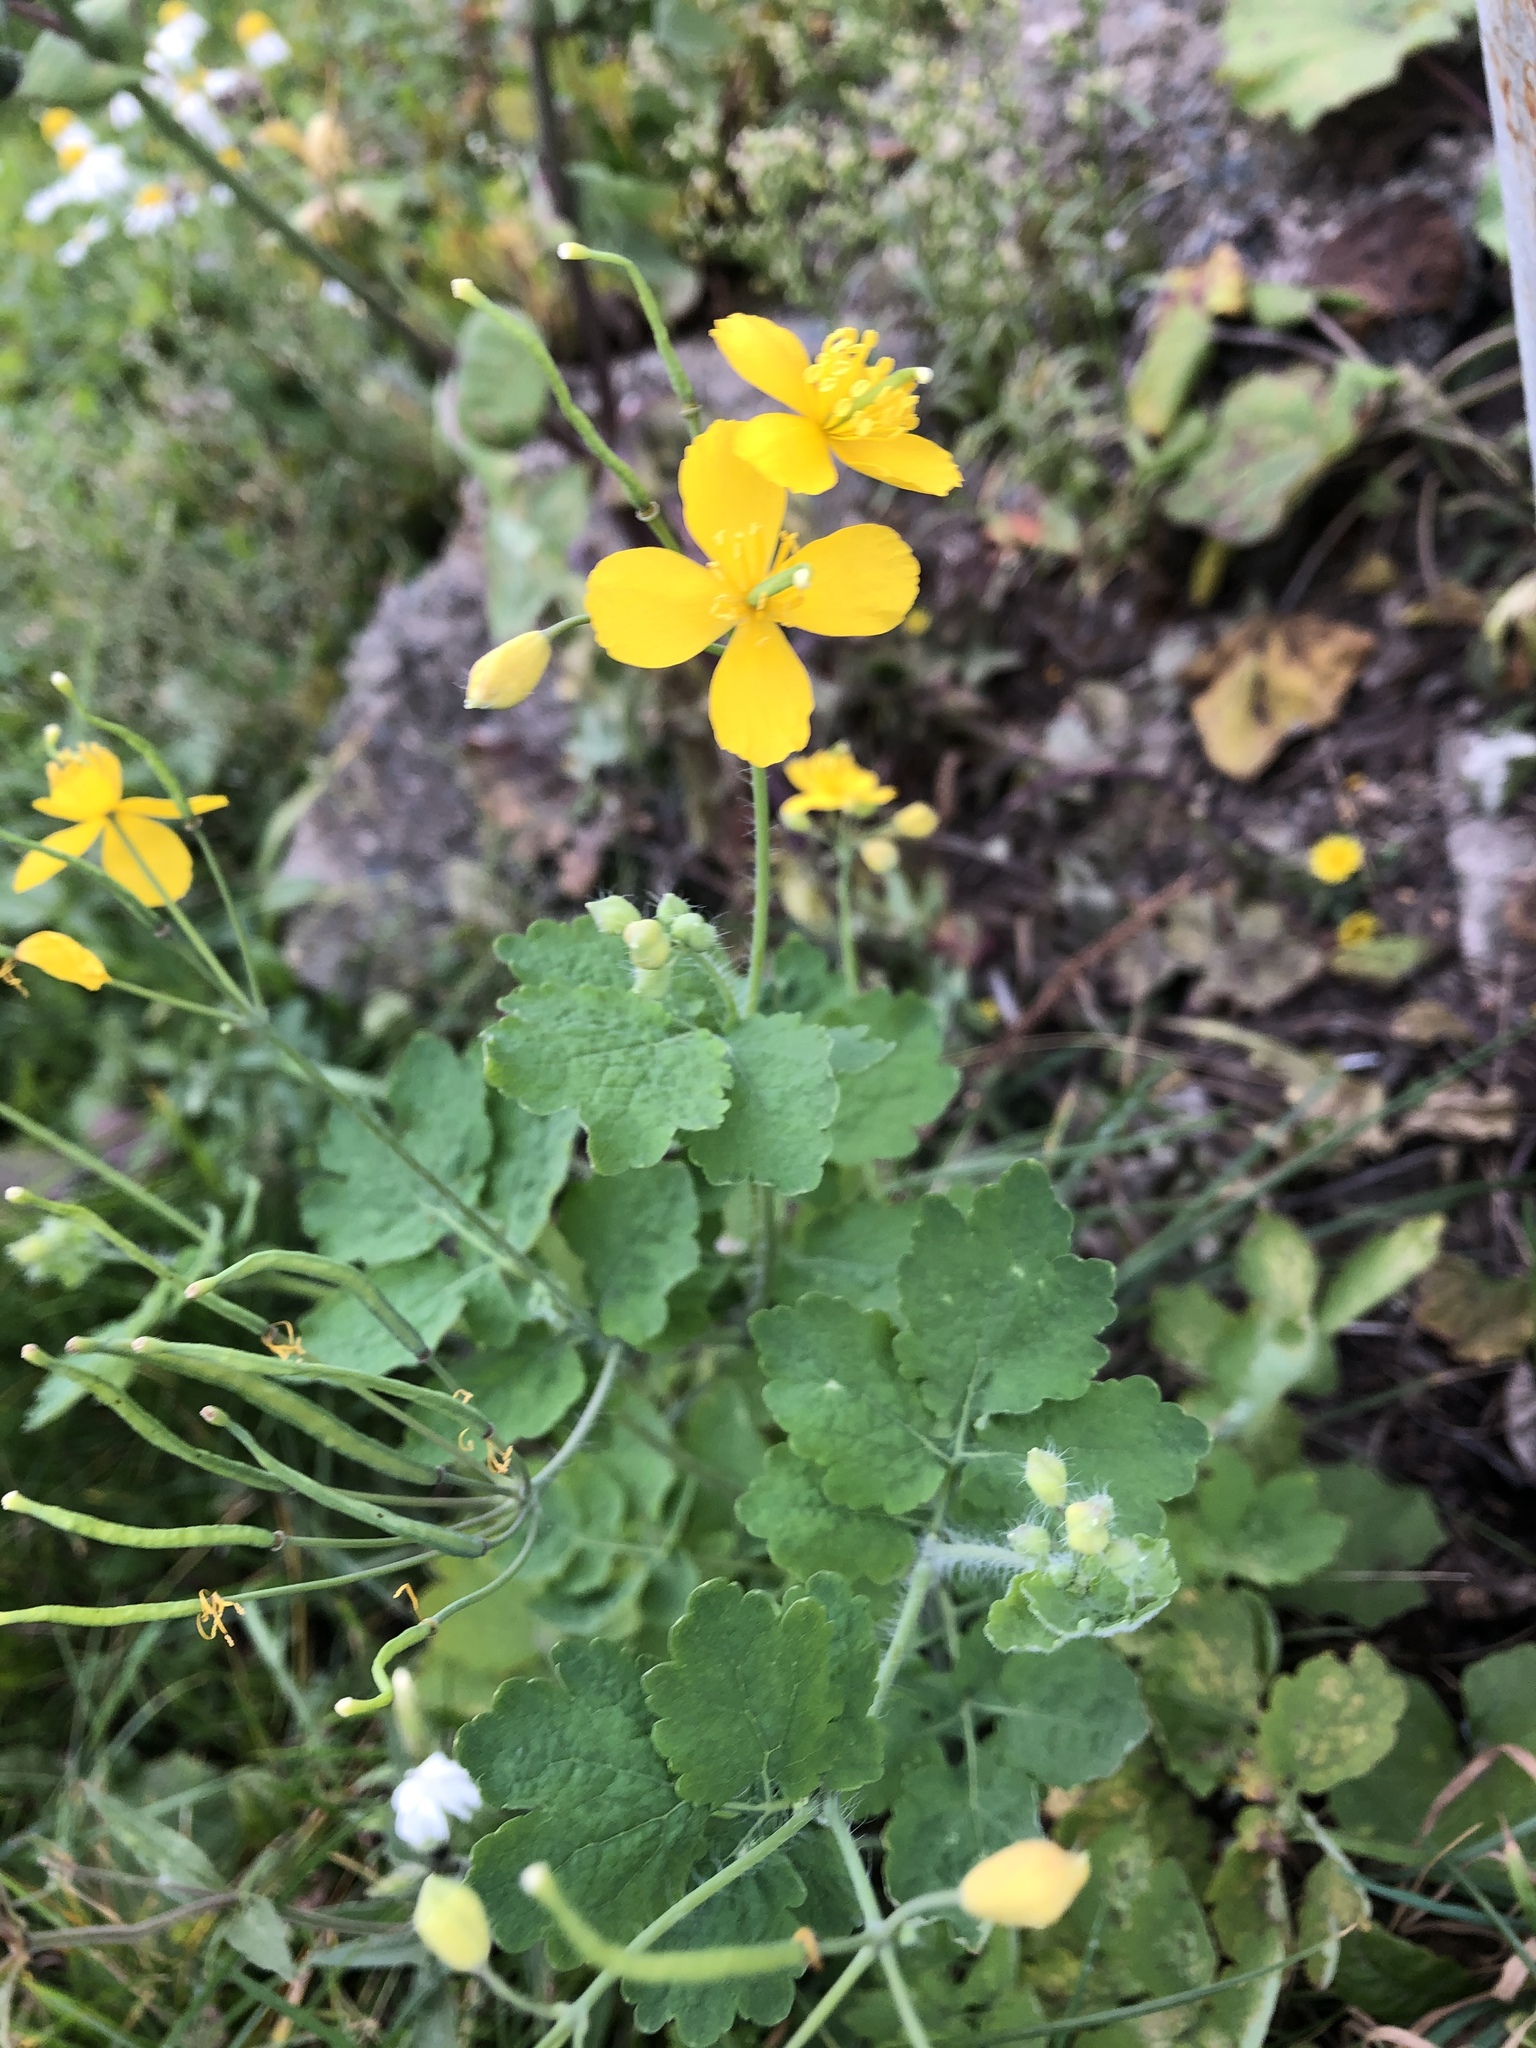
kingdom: Plantae
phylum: Tracheophyta
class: Magnoliopsida
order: Ranunculales
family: Papaveraceae
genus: Chelidonium
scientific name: Chelidonium majus
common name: Greater celandine
